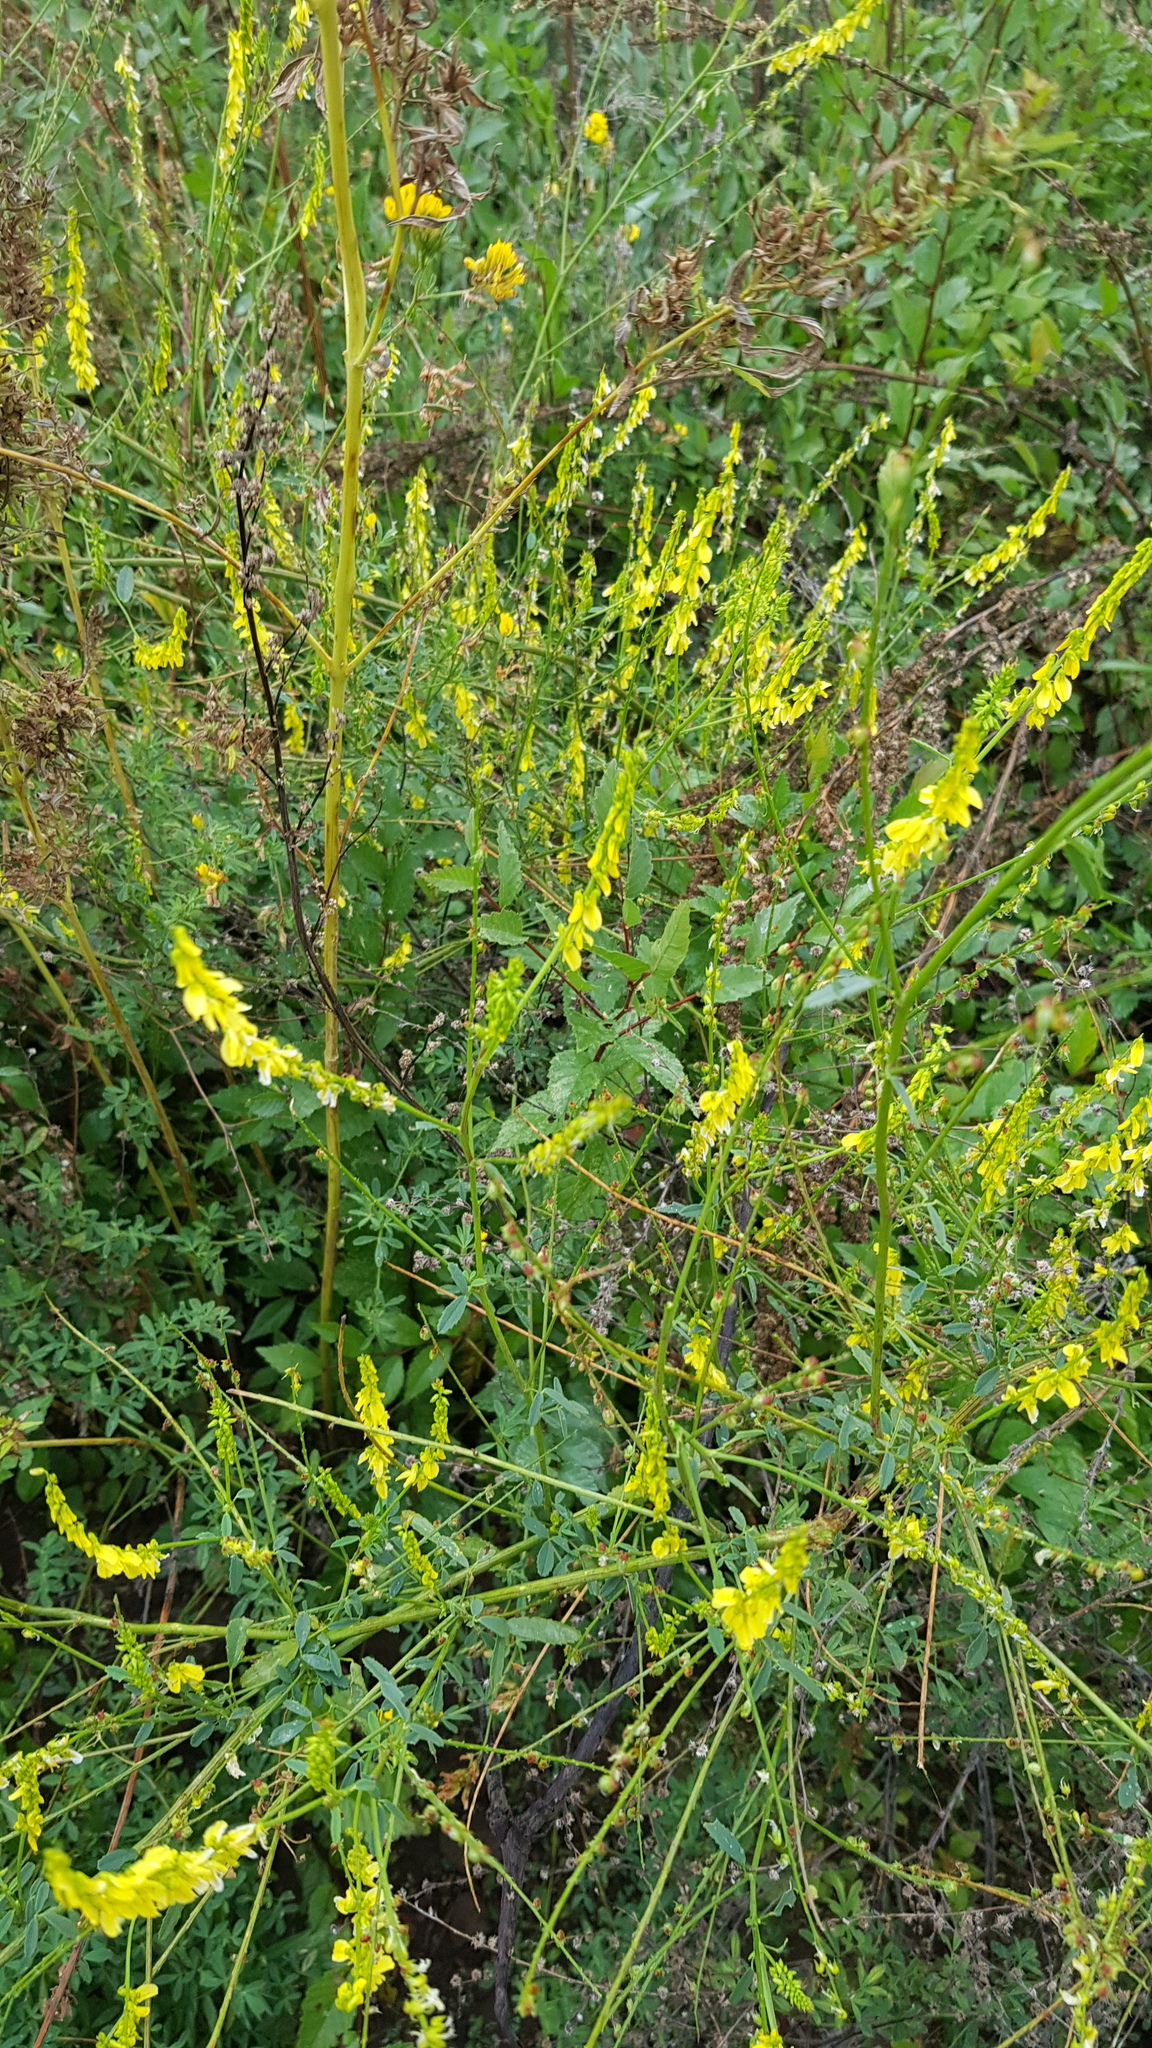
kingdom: Plantae
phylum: Tracheophyta
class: Magnoliopsida
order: Fabales
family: Fabaceae
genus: Melilotus
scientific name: Melilotus officinalis
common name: Sweetclover
